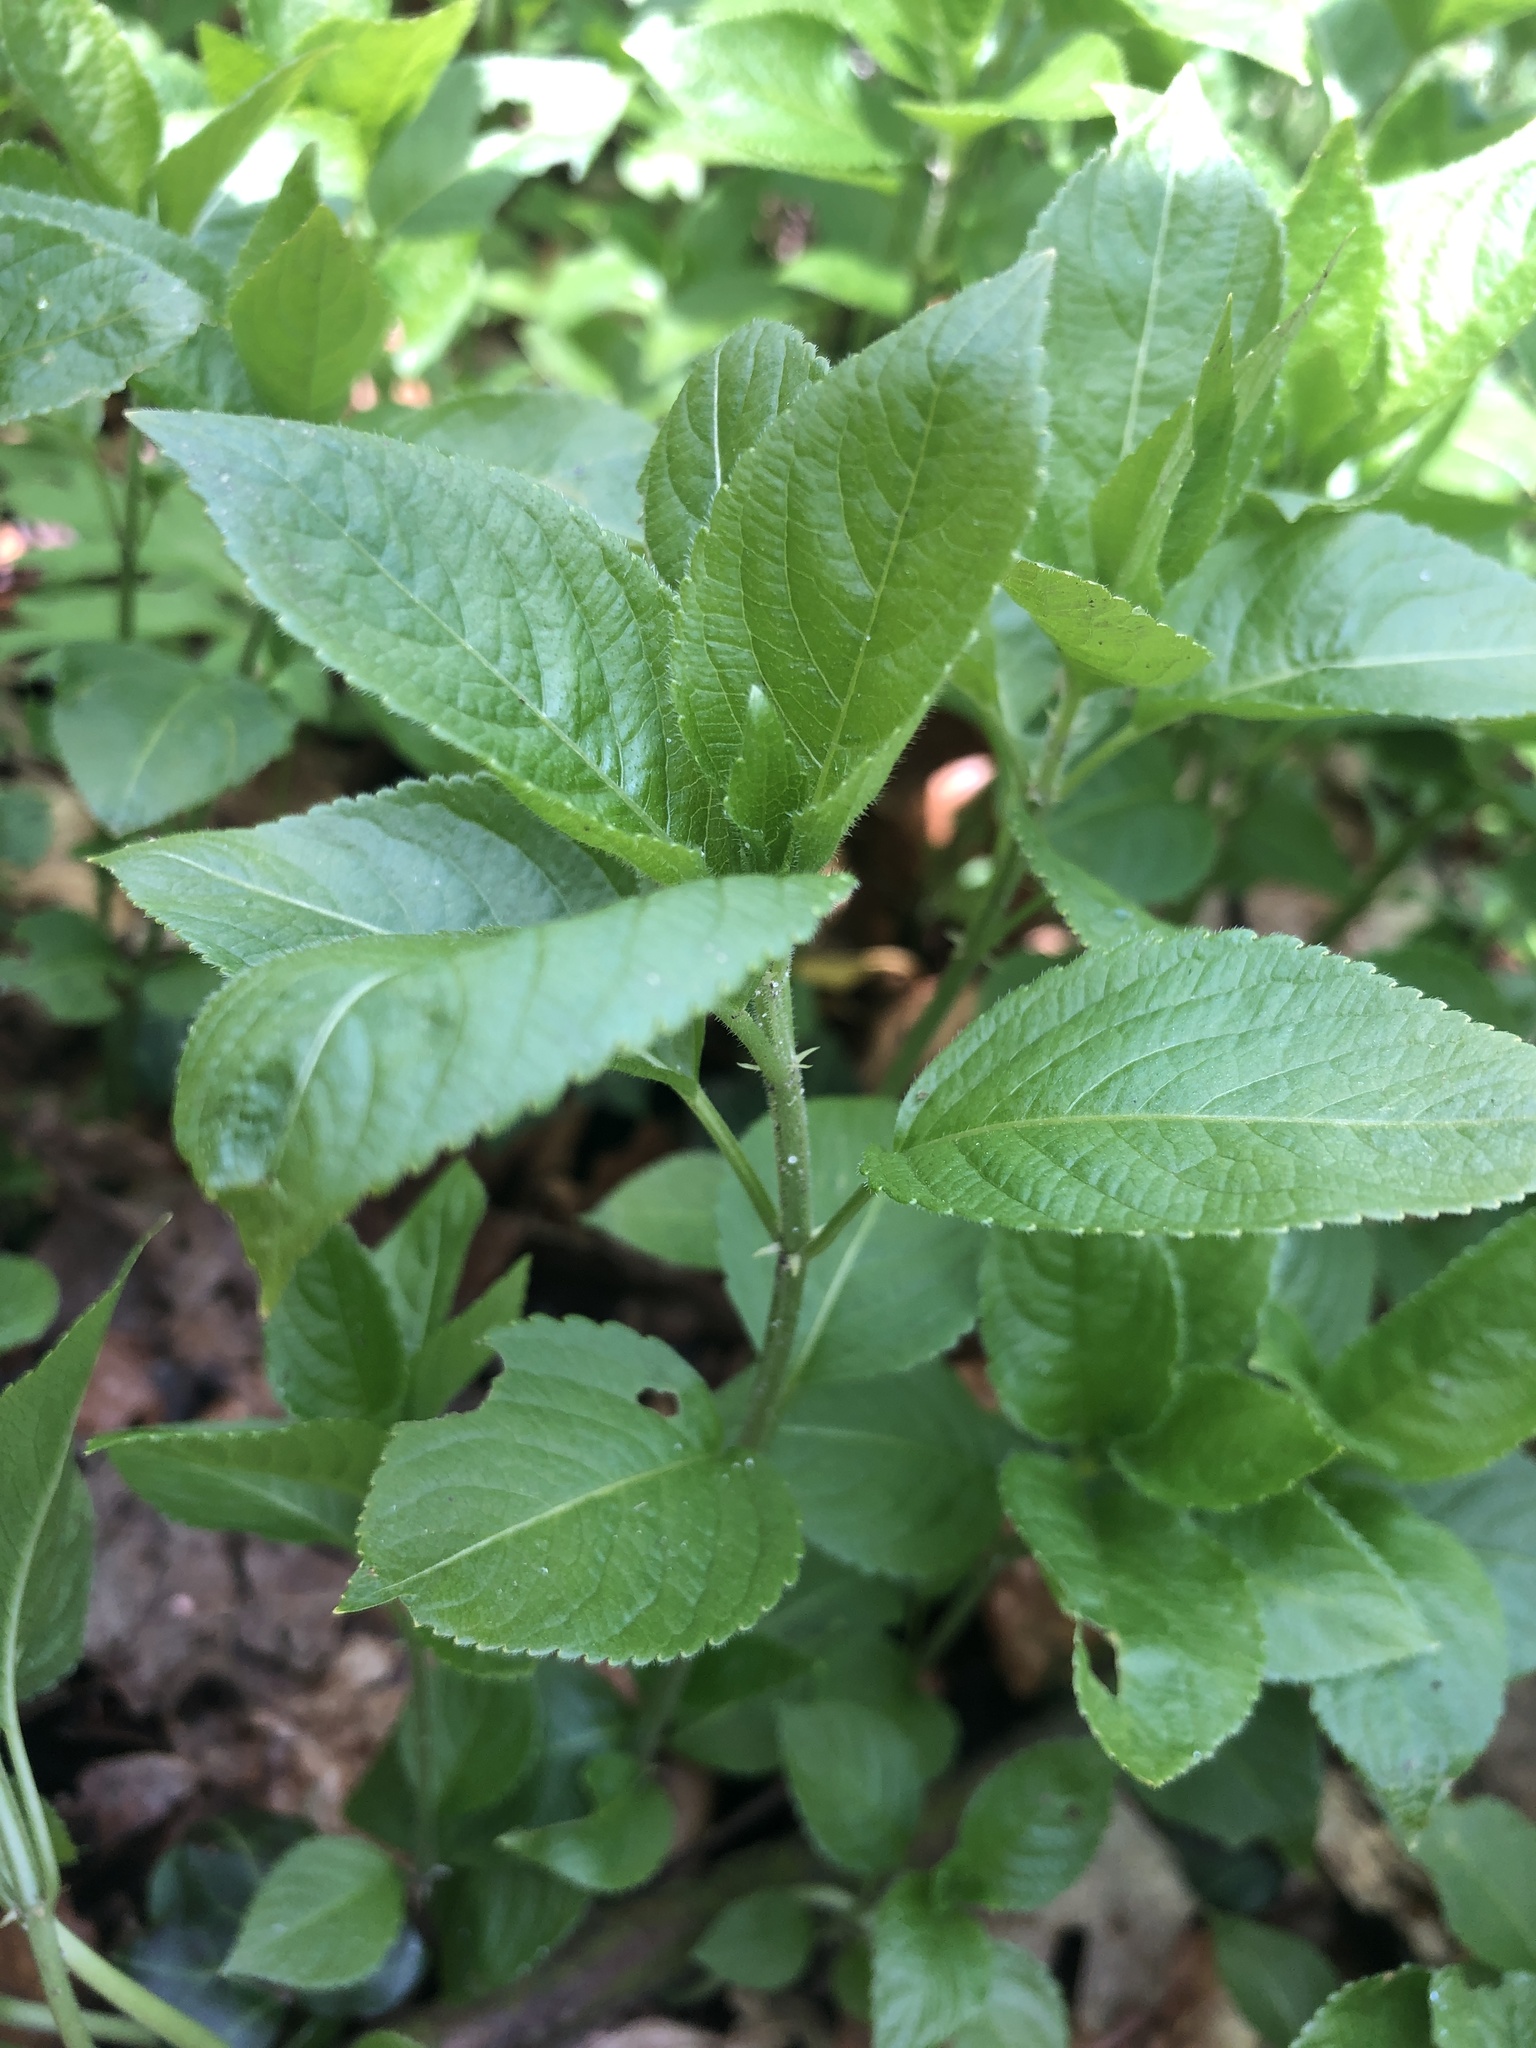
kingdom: Plantae
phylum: Tracheophyta
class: Magnoliopsida
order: Malpighiales
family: Euphorbiaceae
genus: Mercurialis
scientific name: Mercurialis perennis
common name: Dog mercury
